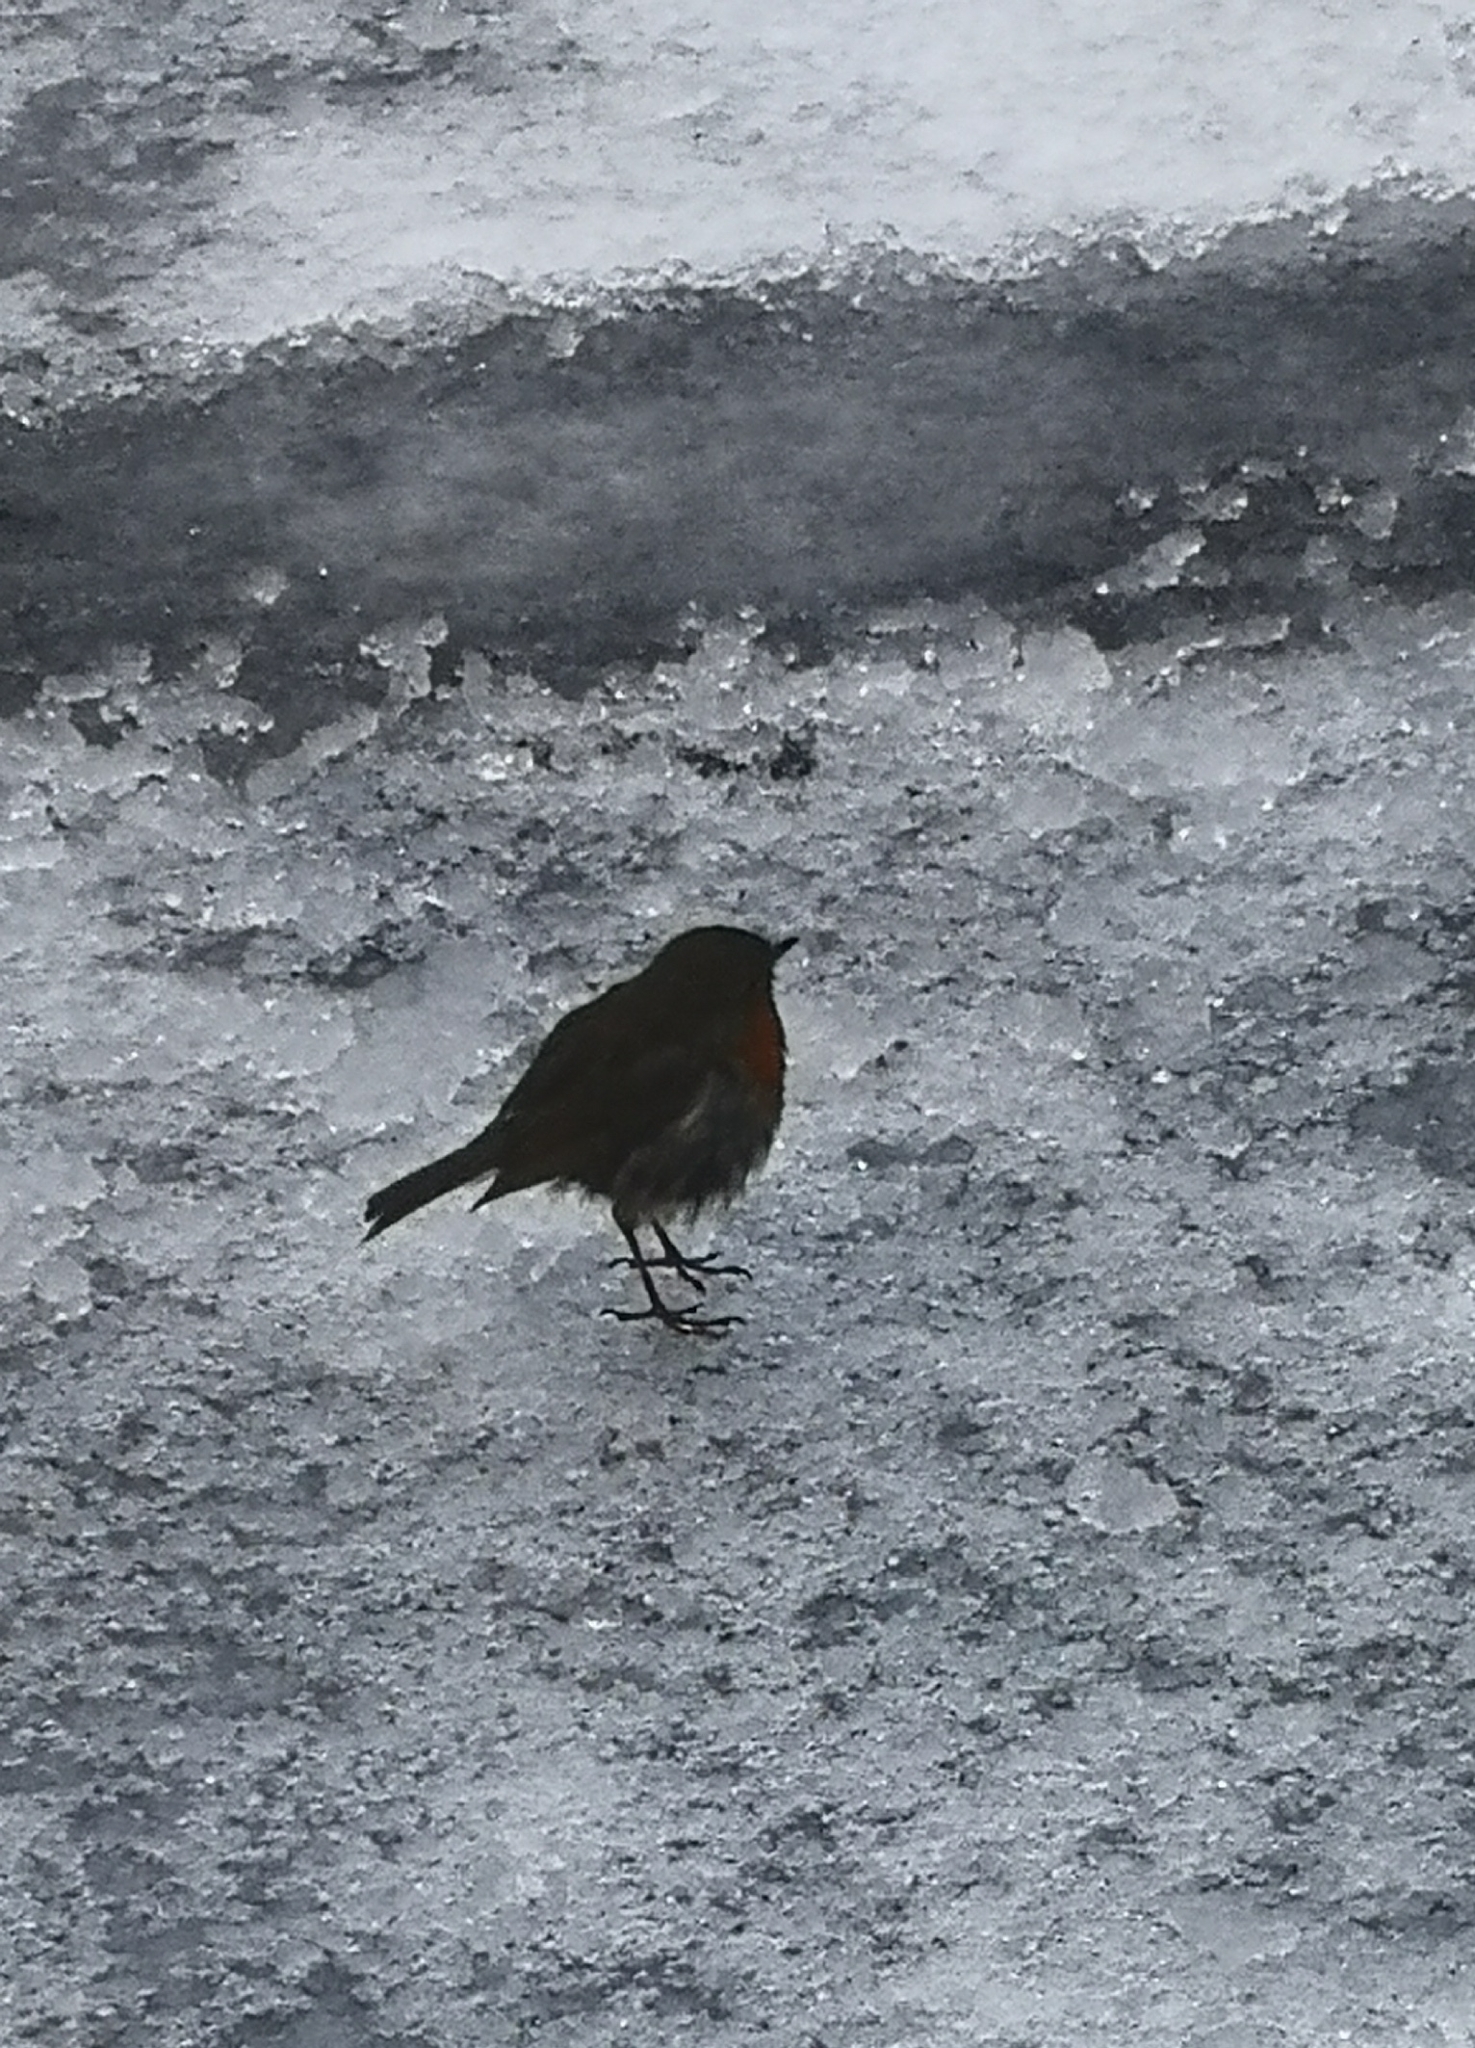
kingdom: Animalia
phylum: Chordata
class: Aves
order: Passeriformes
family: Muscicapidae
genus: Erithacus
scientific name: Erithacus rubecula
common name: European robin
